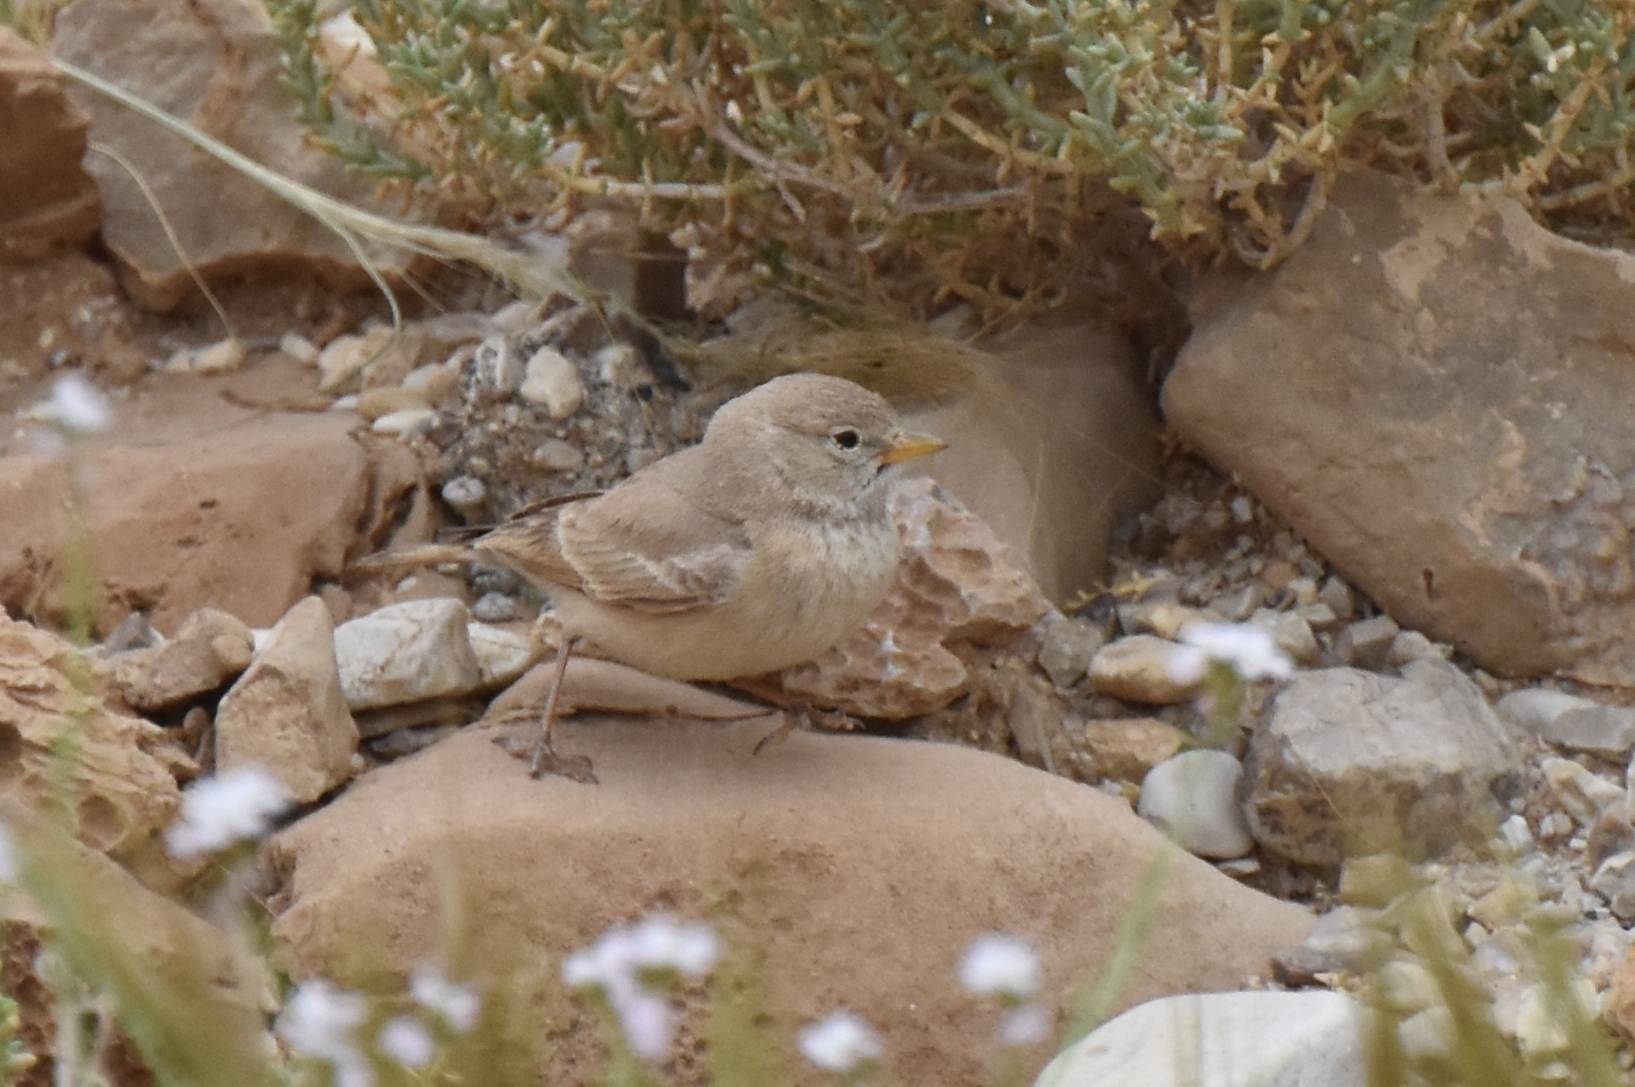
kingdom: Animalia
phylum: Chordata
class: Aves
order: Passeriformes
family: Alaudidae
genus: Ammomanes
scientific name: Ammomanes deserti
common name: Desert lark
